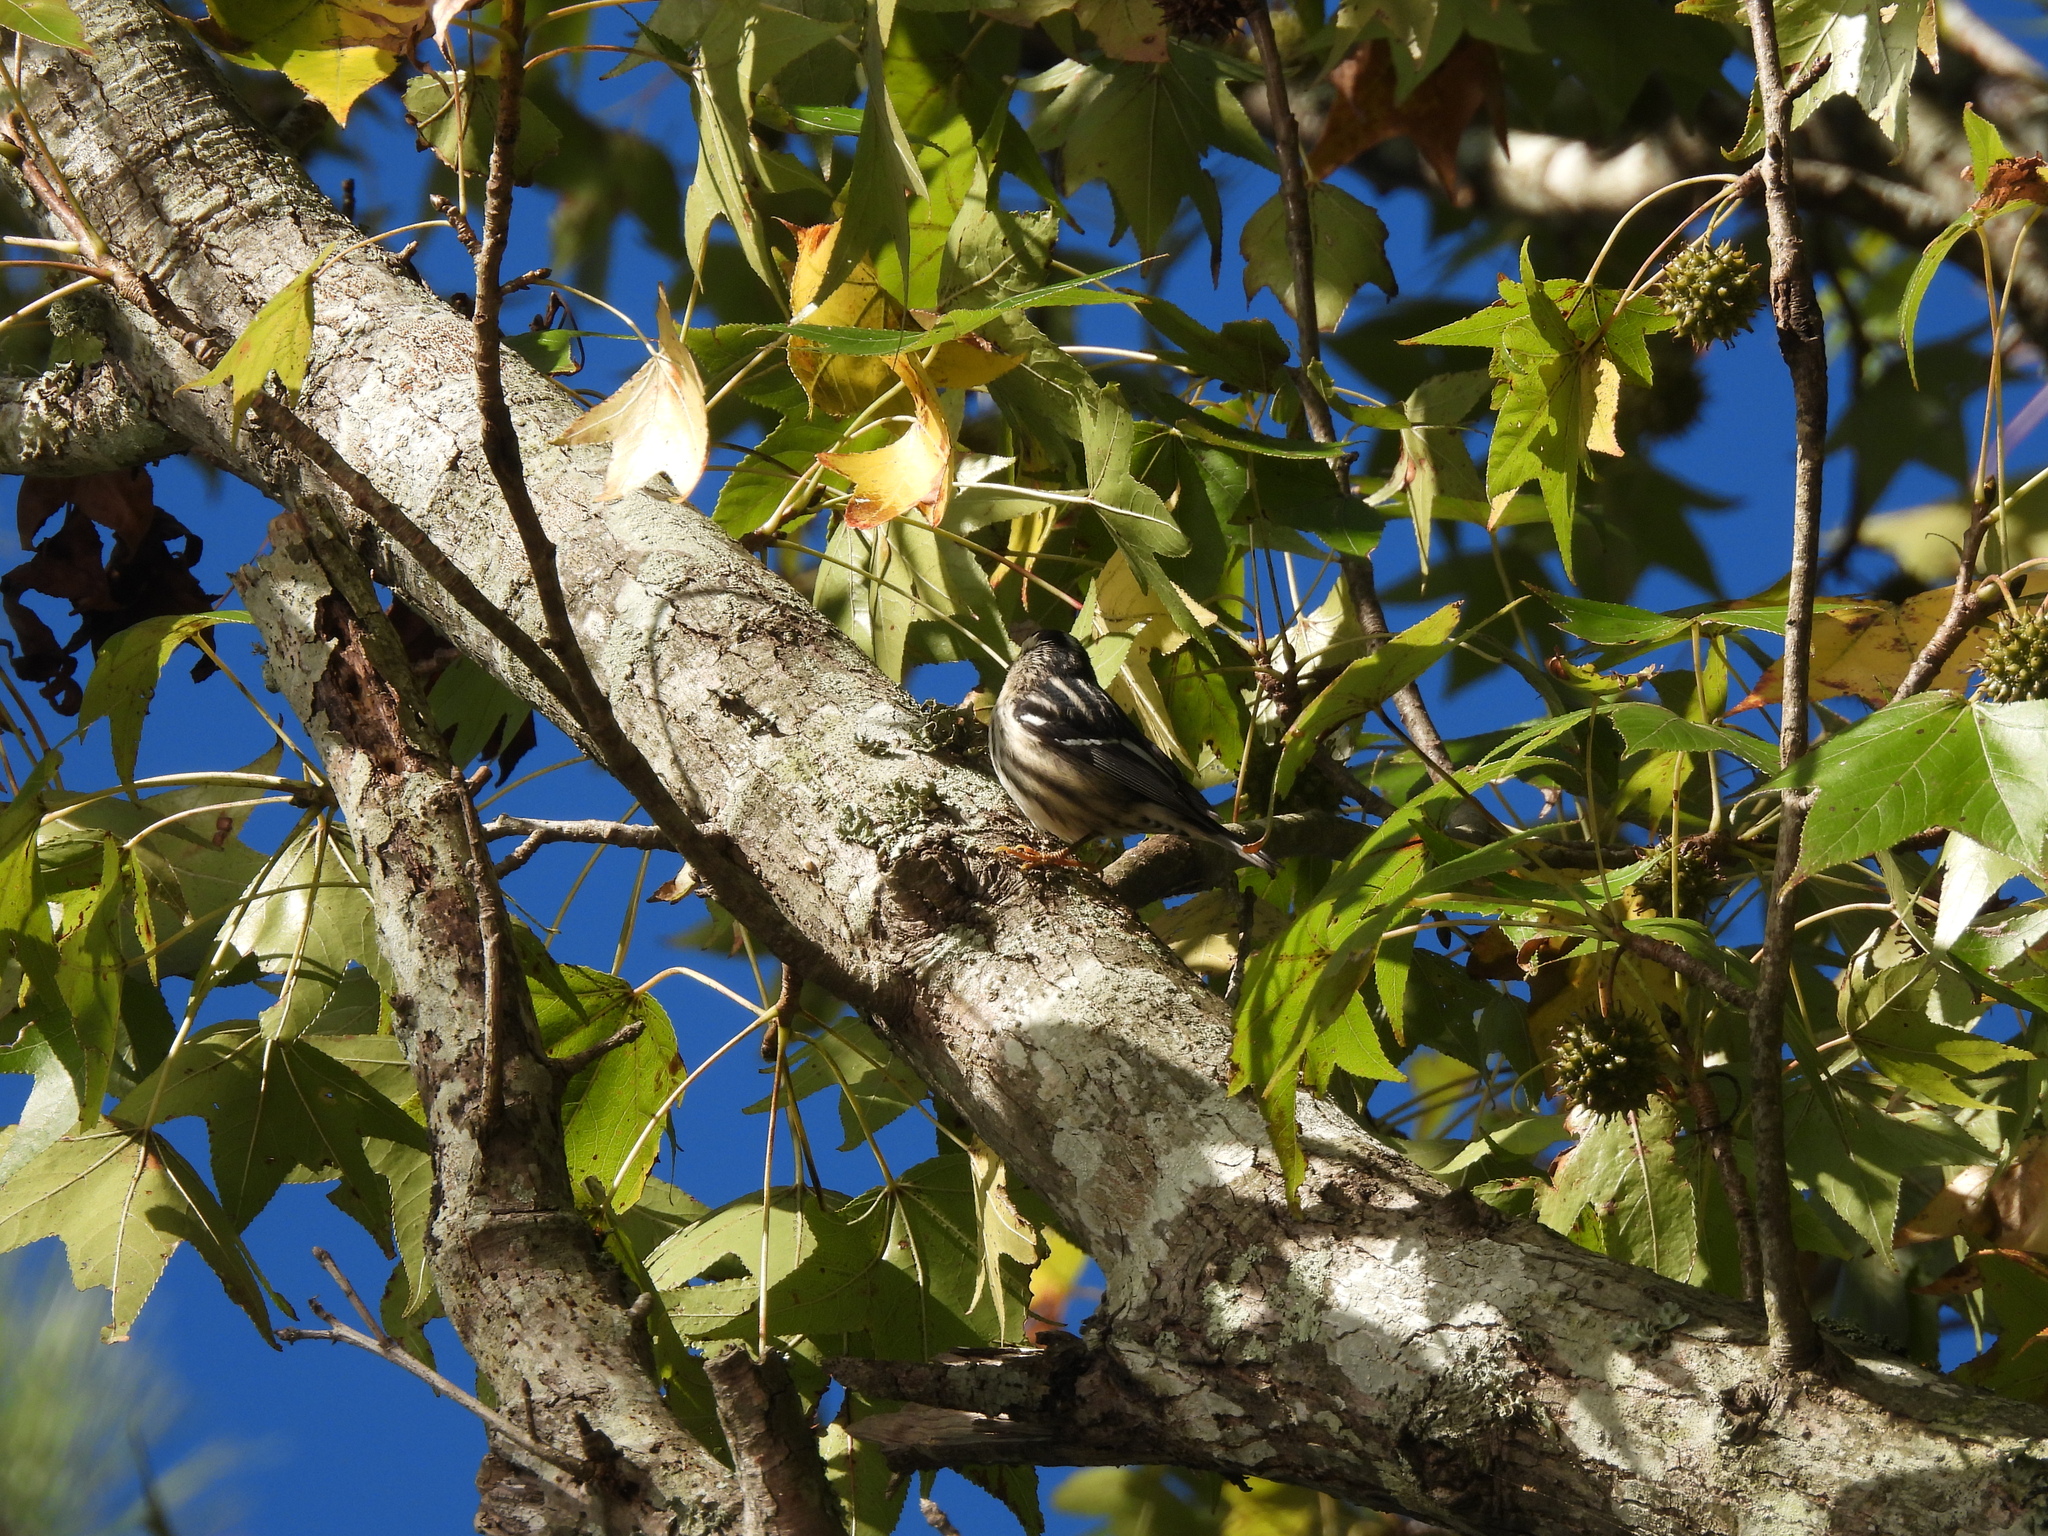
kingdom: Animalia
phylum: Chordata
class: Aves
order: Passeriformes
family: Parulidae
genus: Mniotilta
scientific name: Mniotilta varia
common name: Black-and-white warbler
